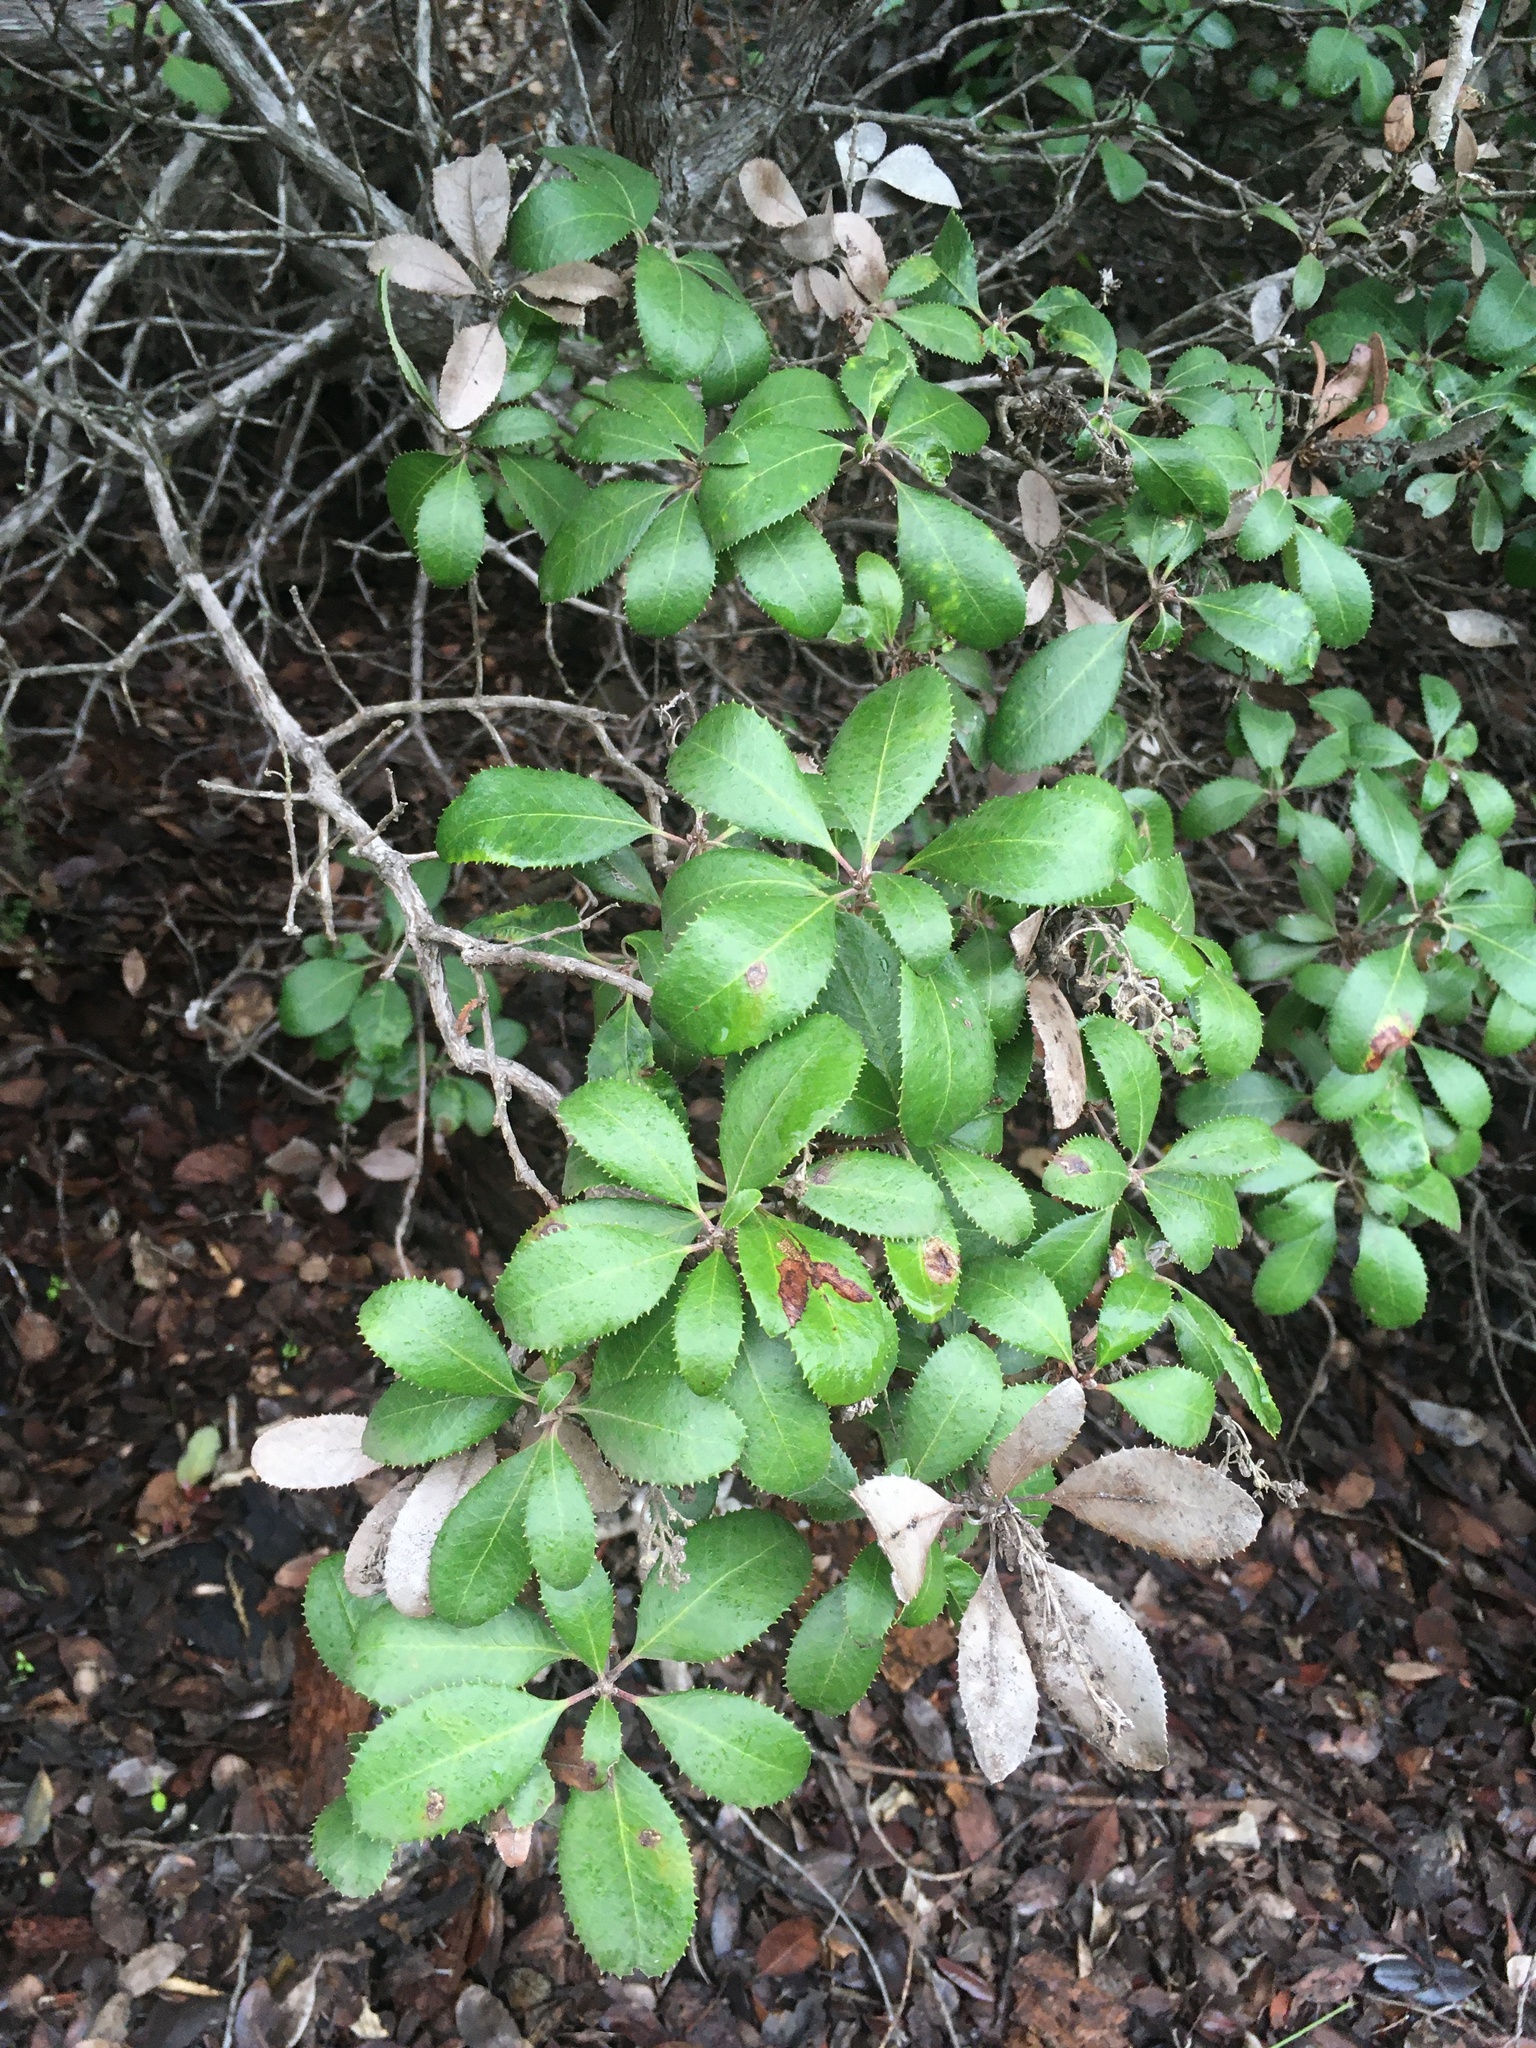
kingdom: Plantae
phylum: Tracheophyta
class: Magnoliopsida
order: Ericales
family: Ericaceae
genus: Comarostaphylis
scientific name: Comarostaphylis diversifolia
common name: Summer-holly
